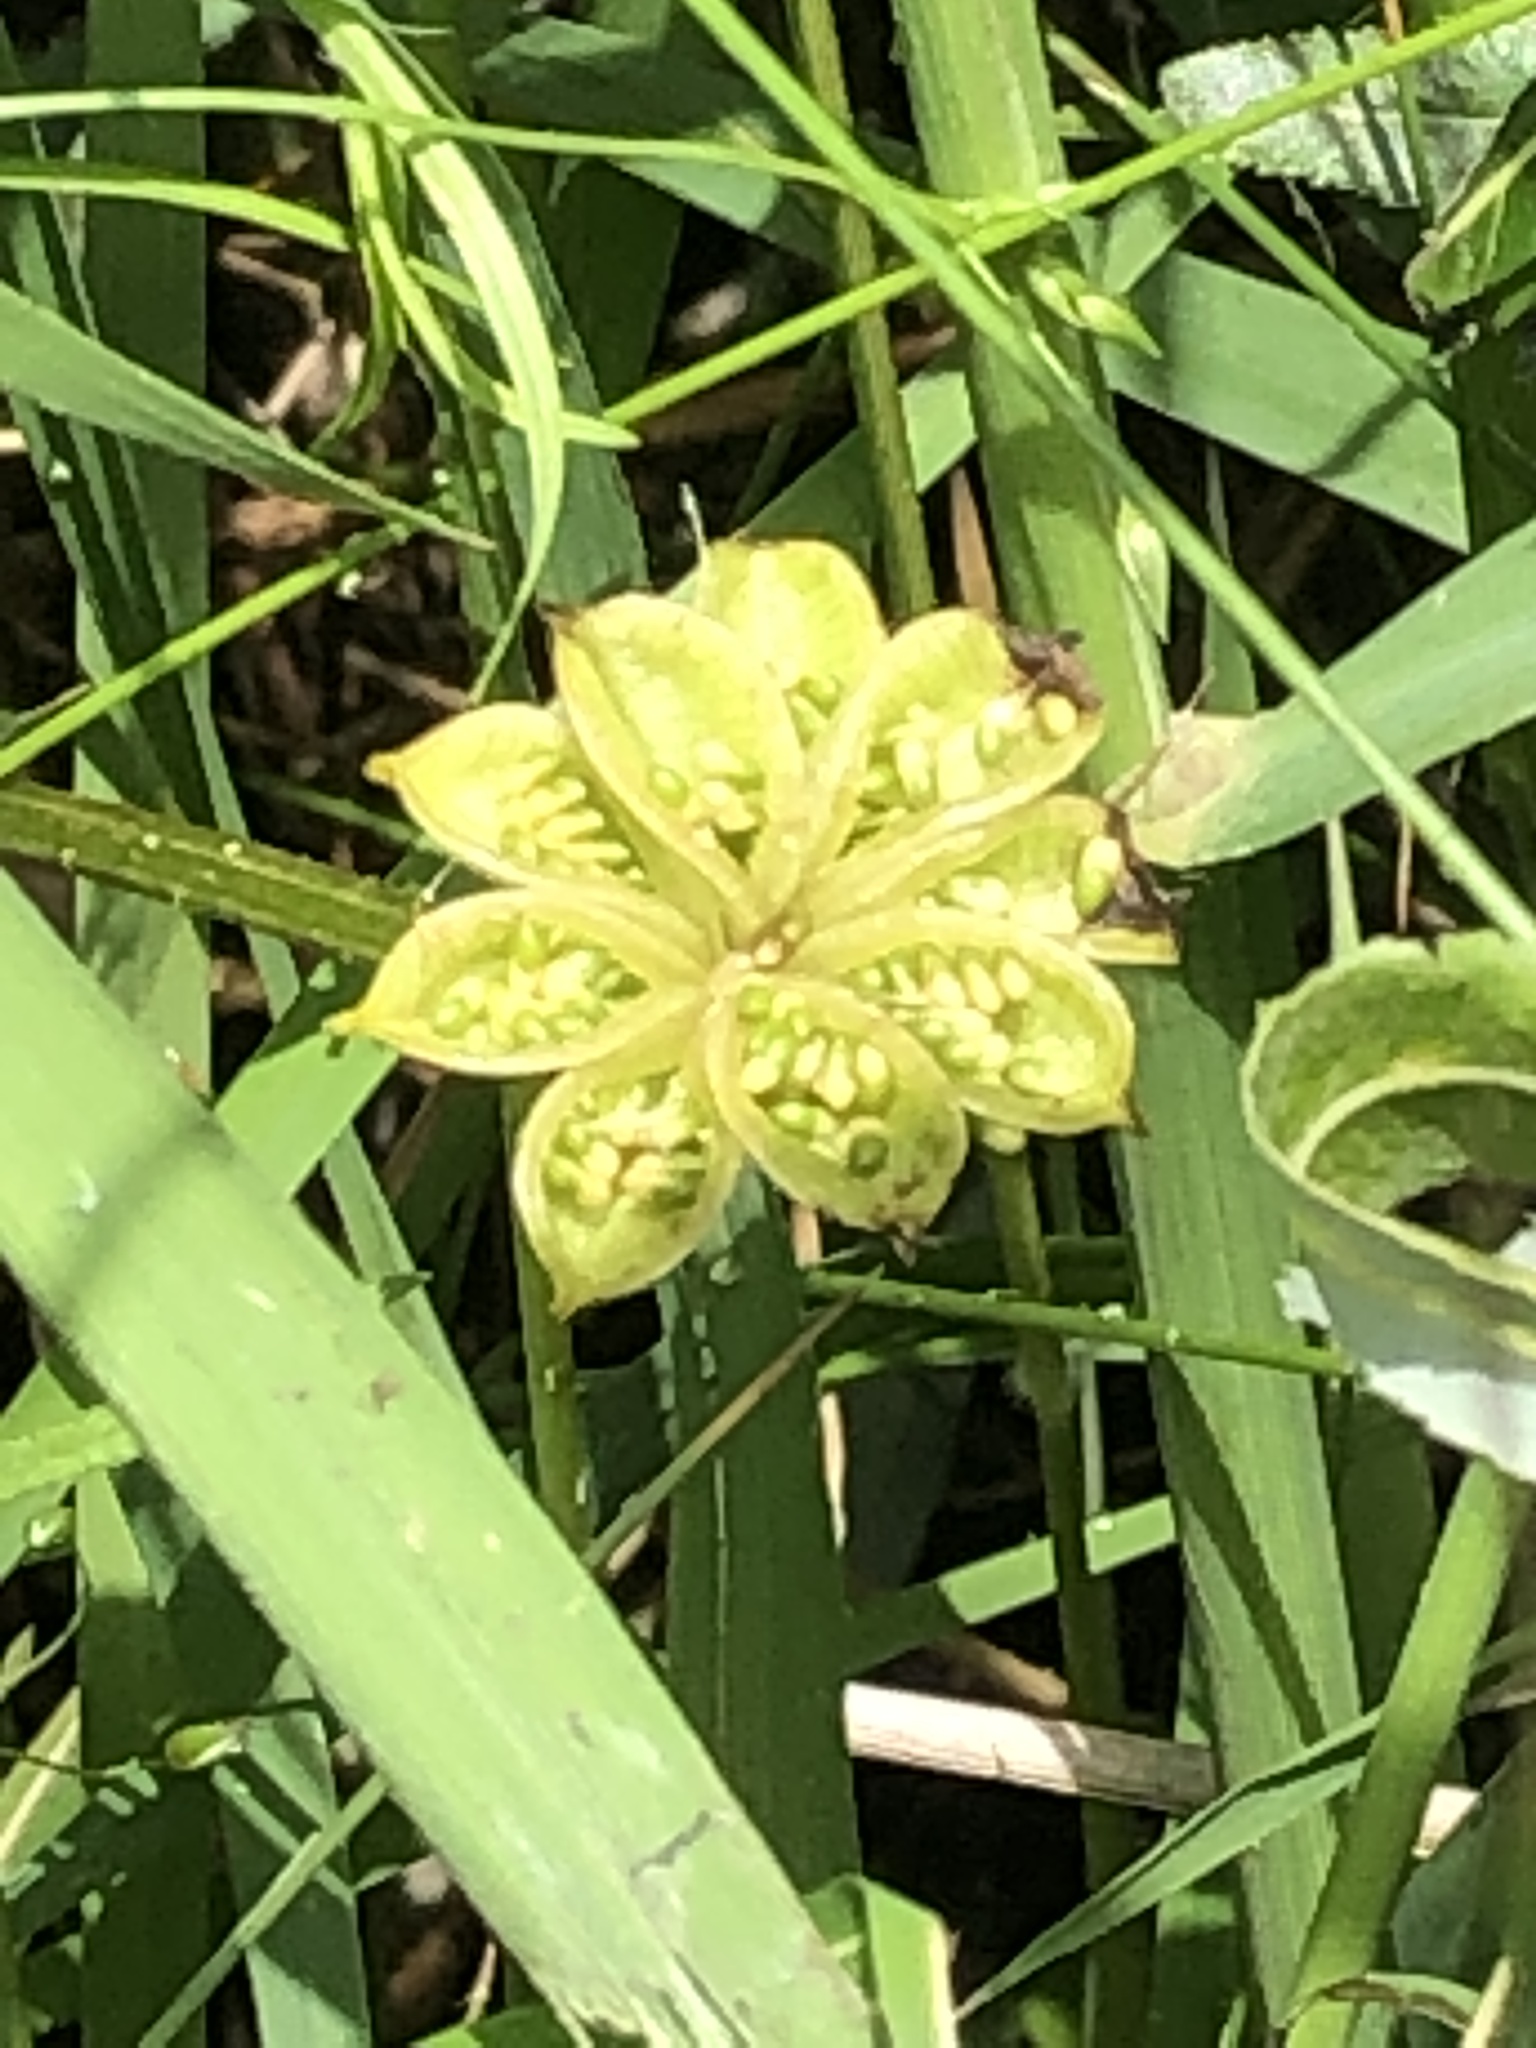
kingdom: Plantae
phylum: Tracheophyta
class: Magnoliopsida
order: Ranunculales
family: Ranunculaceae
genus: Caltha
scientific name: Caltha palustris
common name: Marsh marigold
